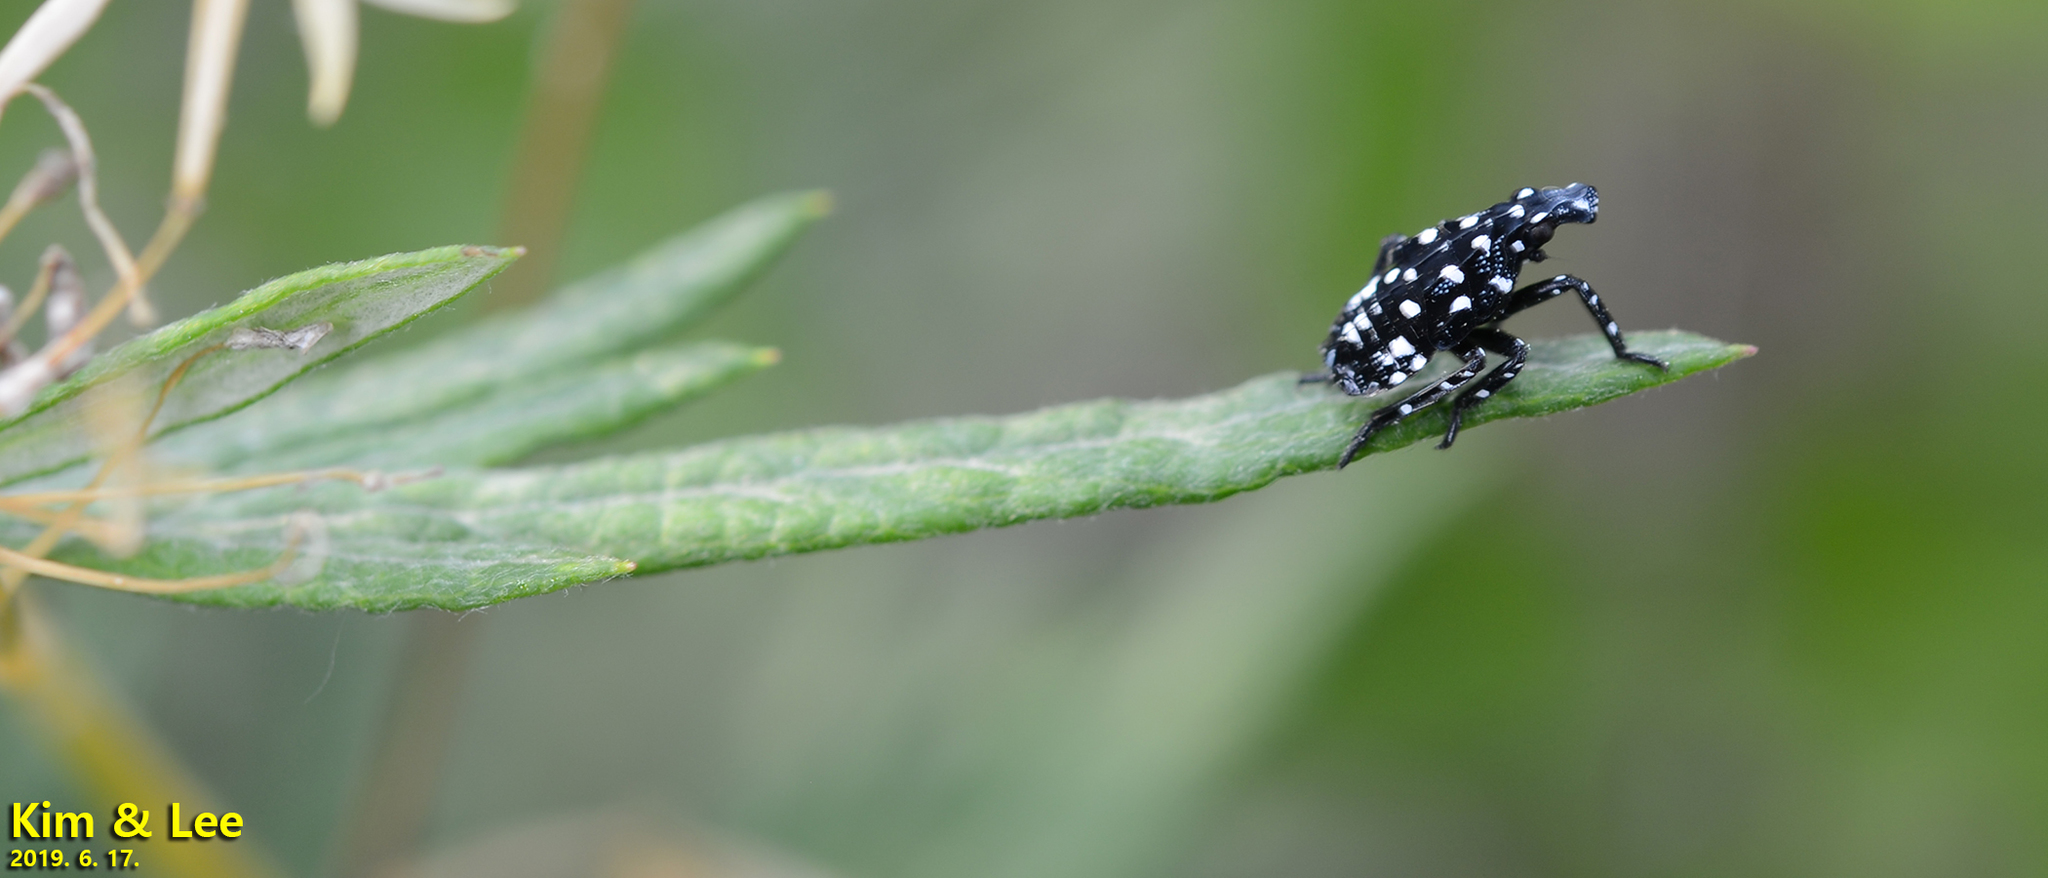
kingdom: Animalia
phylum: Arthropoda
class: Insecta
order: Hemiptera
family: Fulgoridae
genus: Lycorma
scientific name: Lycorma delicatula
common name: Spotted lanternfly
